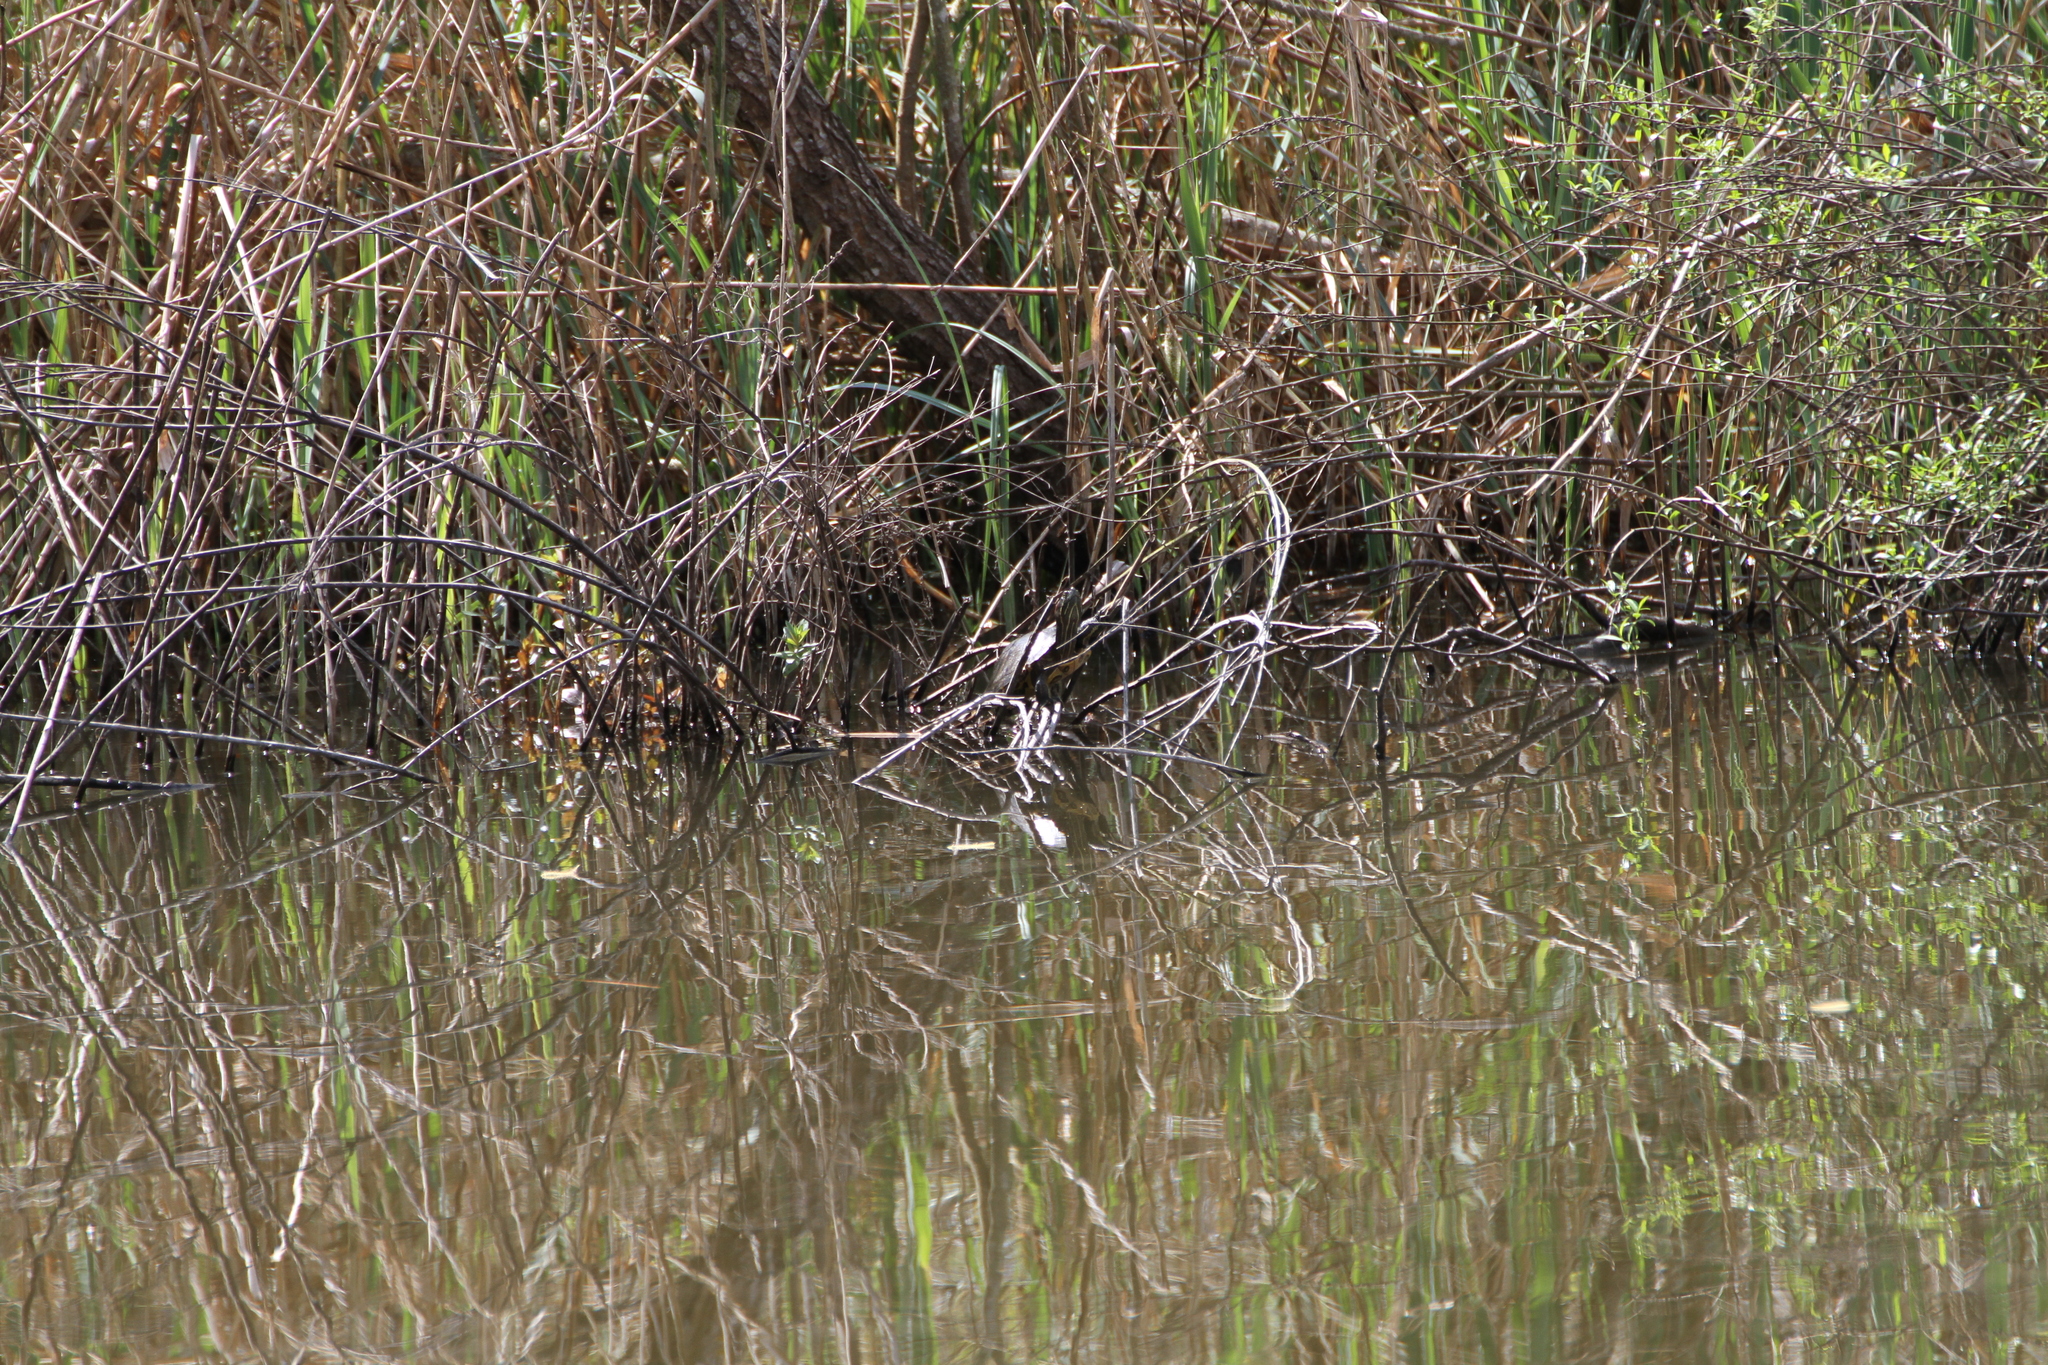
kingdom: Animalia
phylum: Chordata
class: Testudines
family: Emydidae
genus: Trachemys
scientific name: Trachemys scripta
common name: Slider
